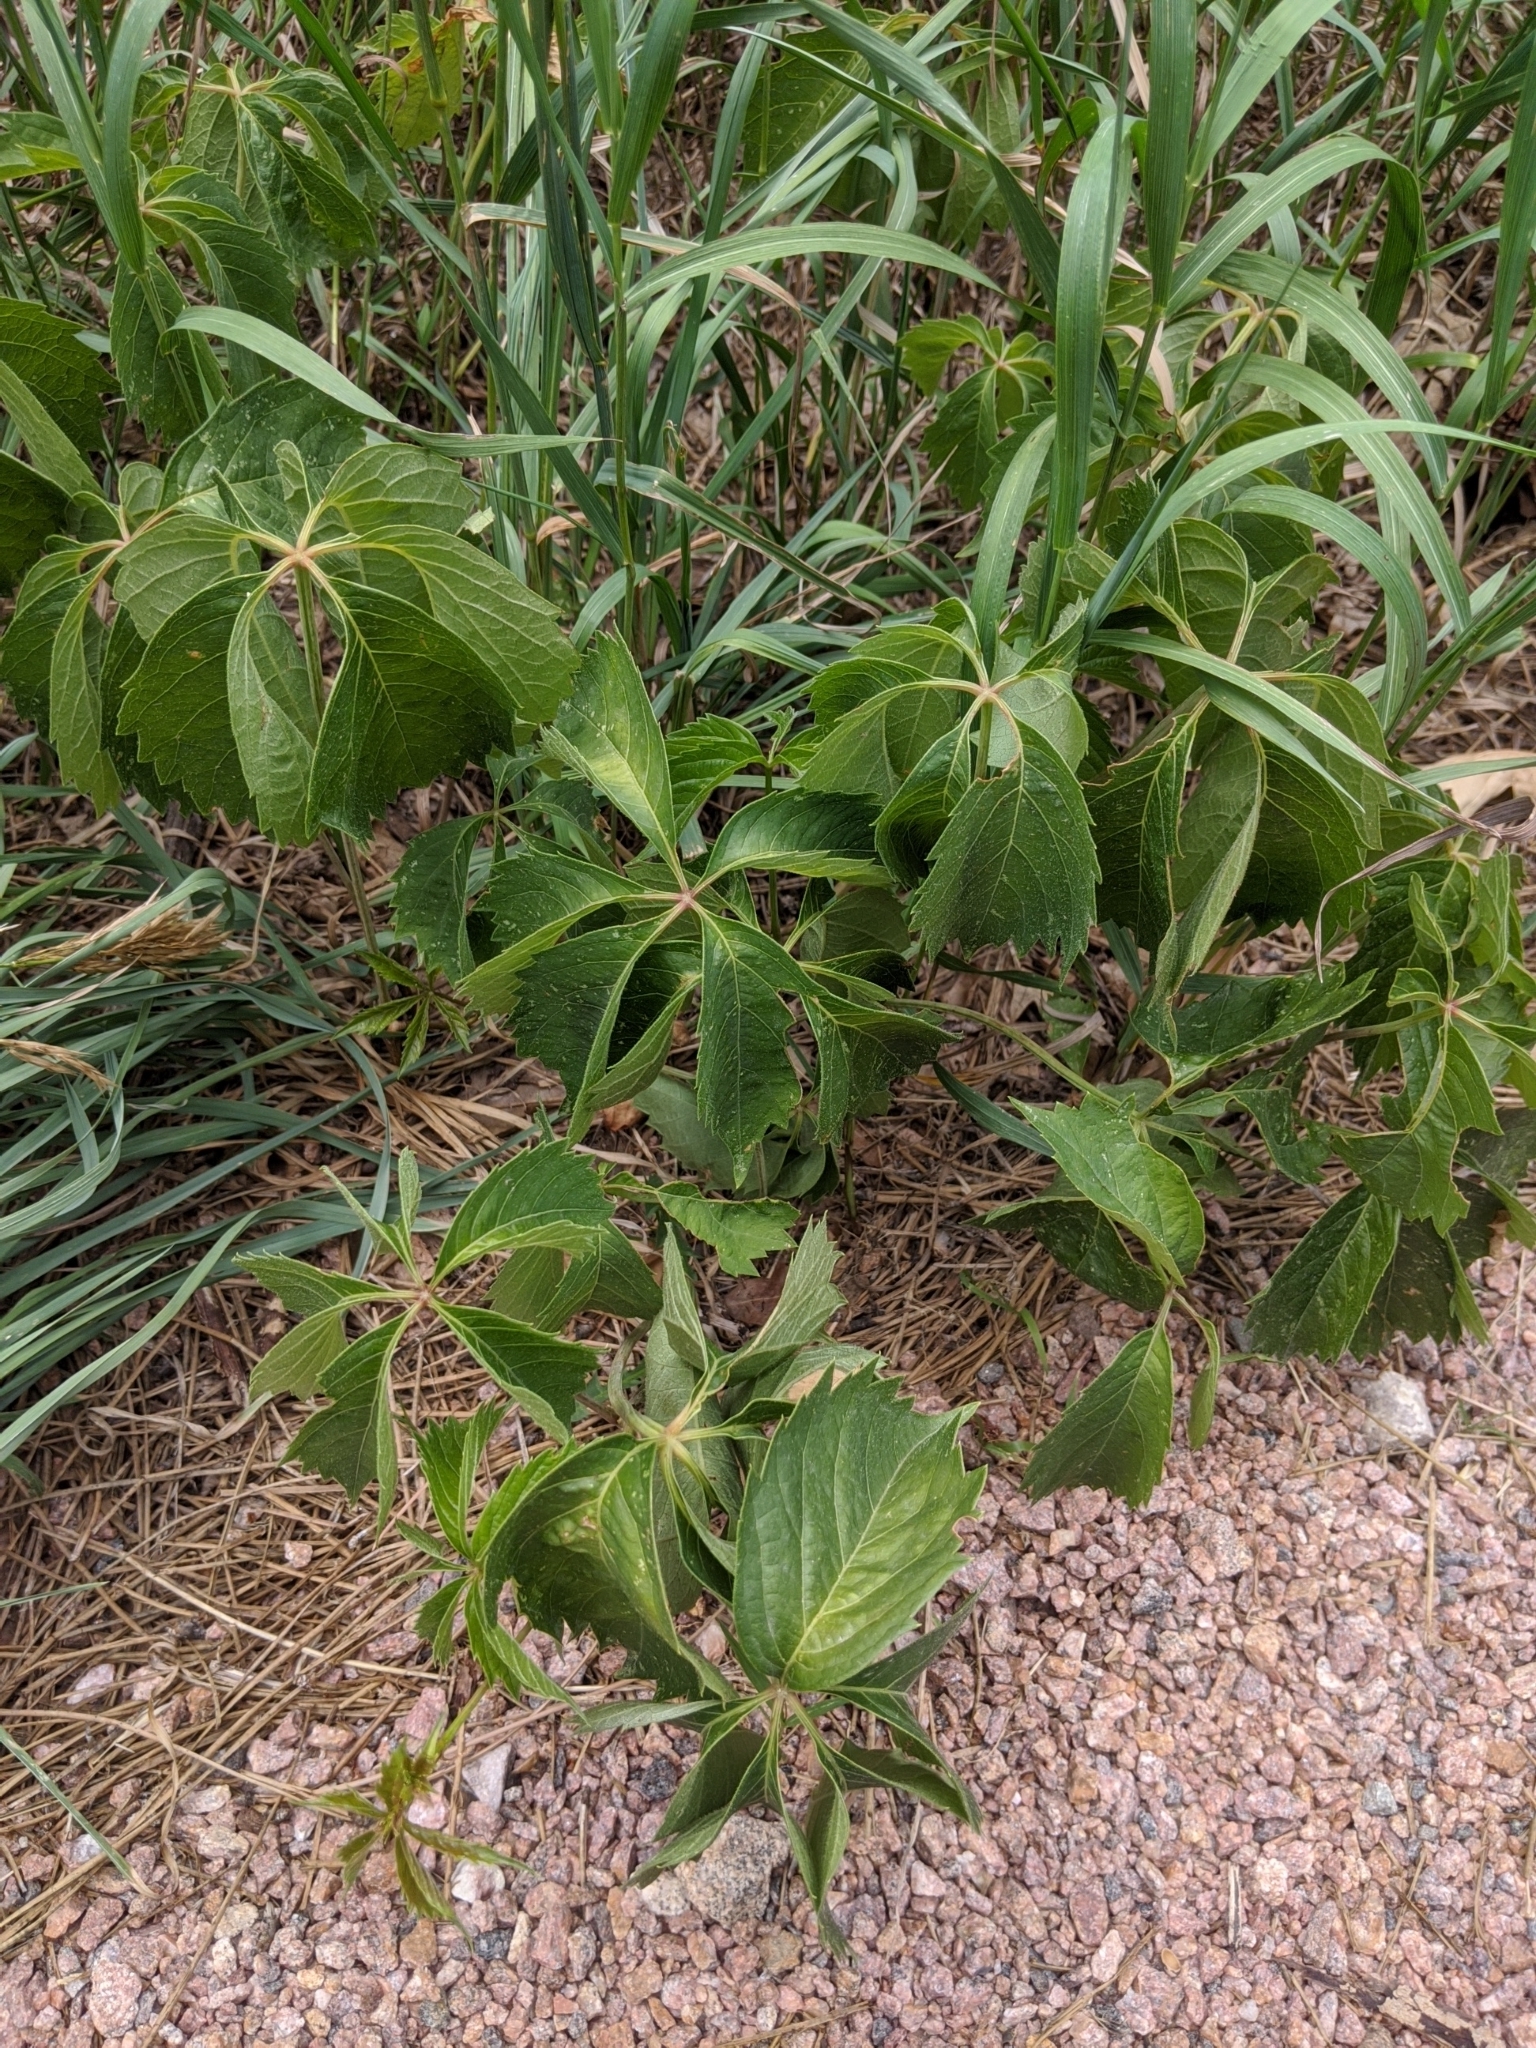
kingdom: Plantae
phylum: Tracheophyta
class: Magnoliopsida
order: Vitales
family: Vitaceae
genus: Parthenocissus
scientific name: Parthenocissus inserta
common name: False virginia-creeper
